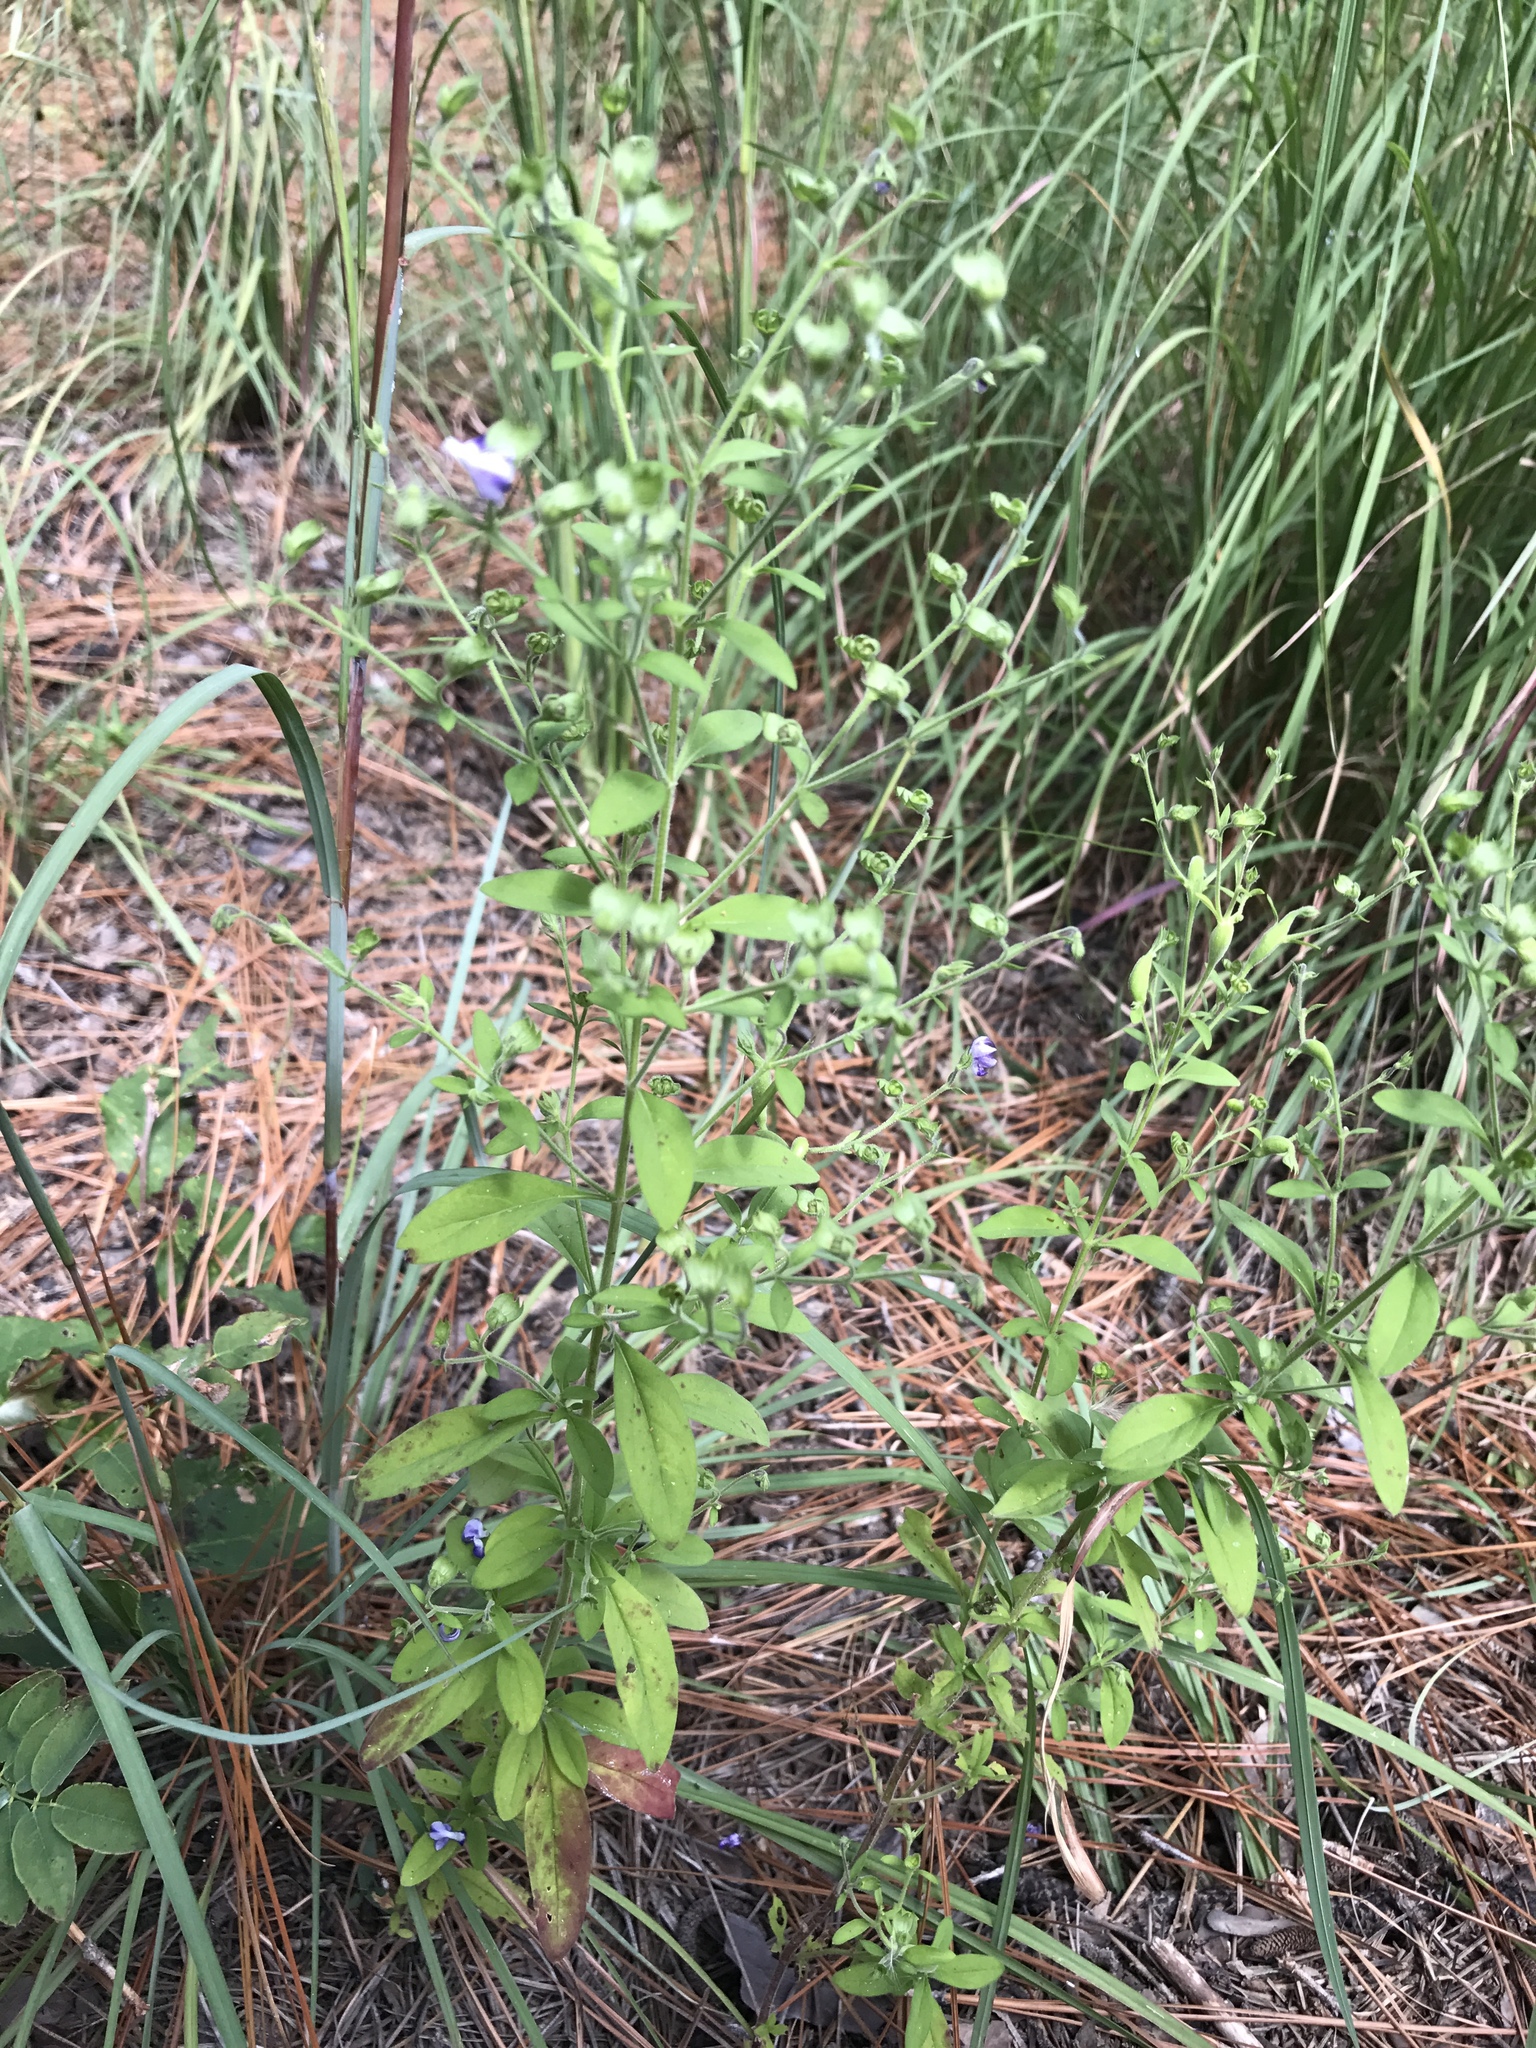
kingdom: Plantae
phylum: Tracheophyta
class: Magnoliopsida
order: Lamiales
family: Lamiaceae
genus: Trichostema
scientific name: Trichostema dichotomum
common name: Bastard pennyroyal
